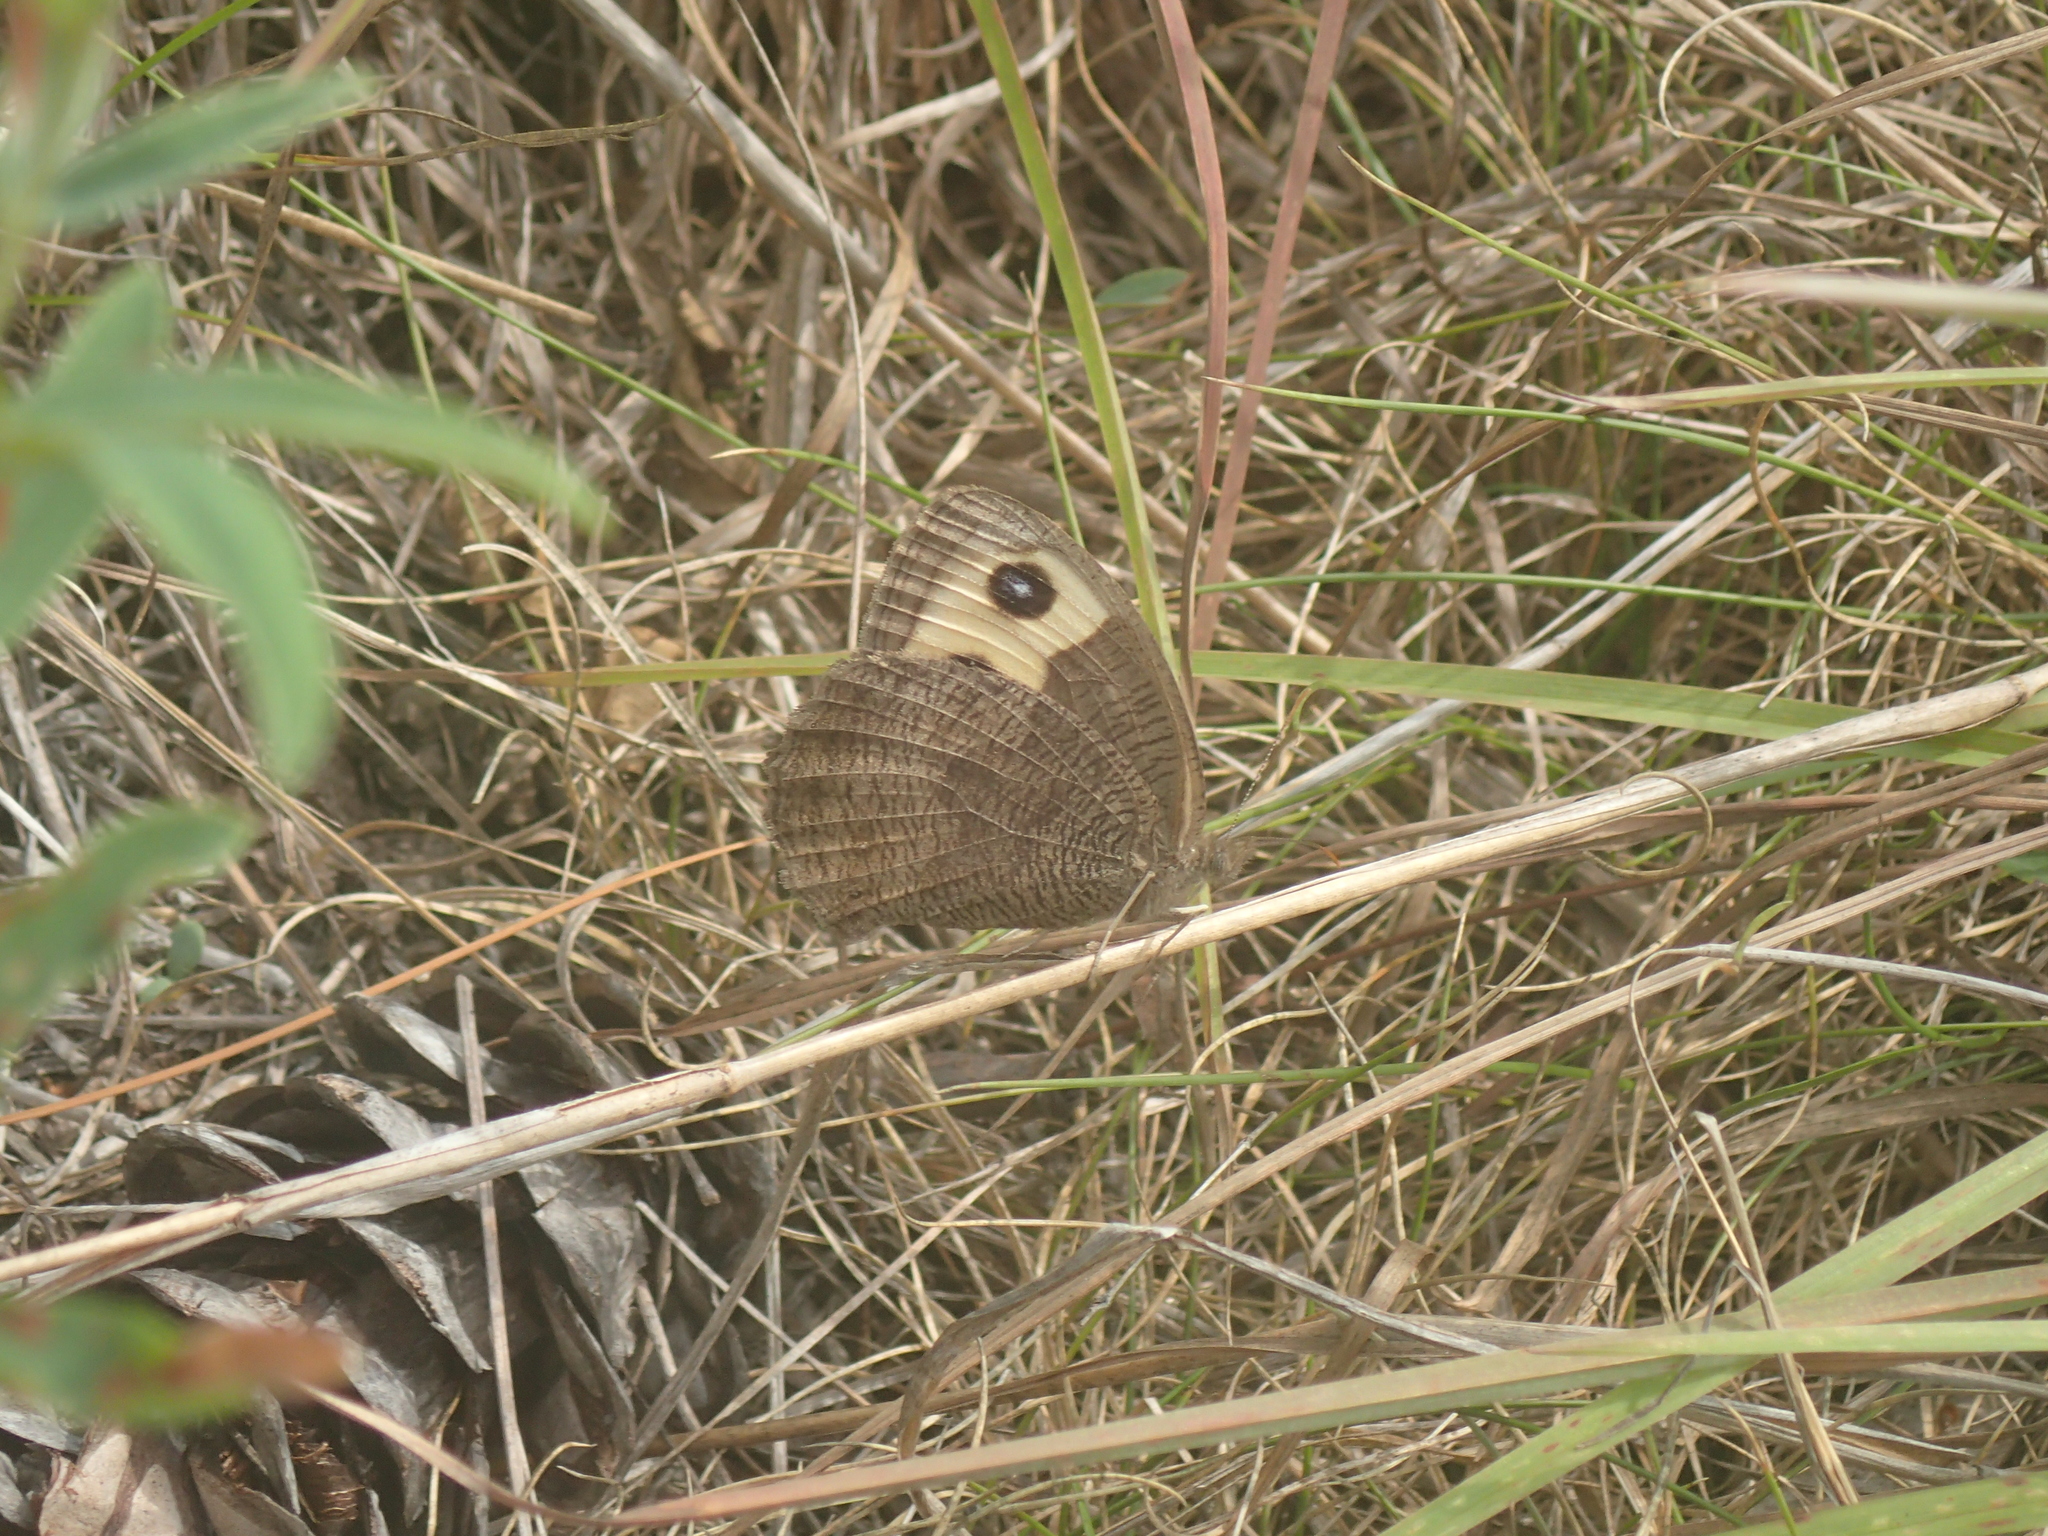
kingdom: Animalia
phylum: Arthropoda
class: Insecta
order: Lepidoptera
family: Nymphalidae
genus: Cercyonis
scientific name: Cercyonis pegala
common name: Common wood-nymph
